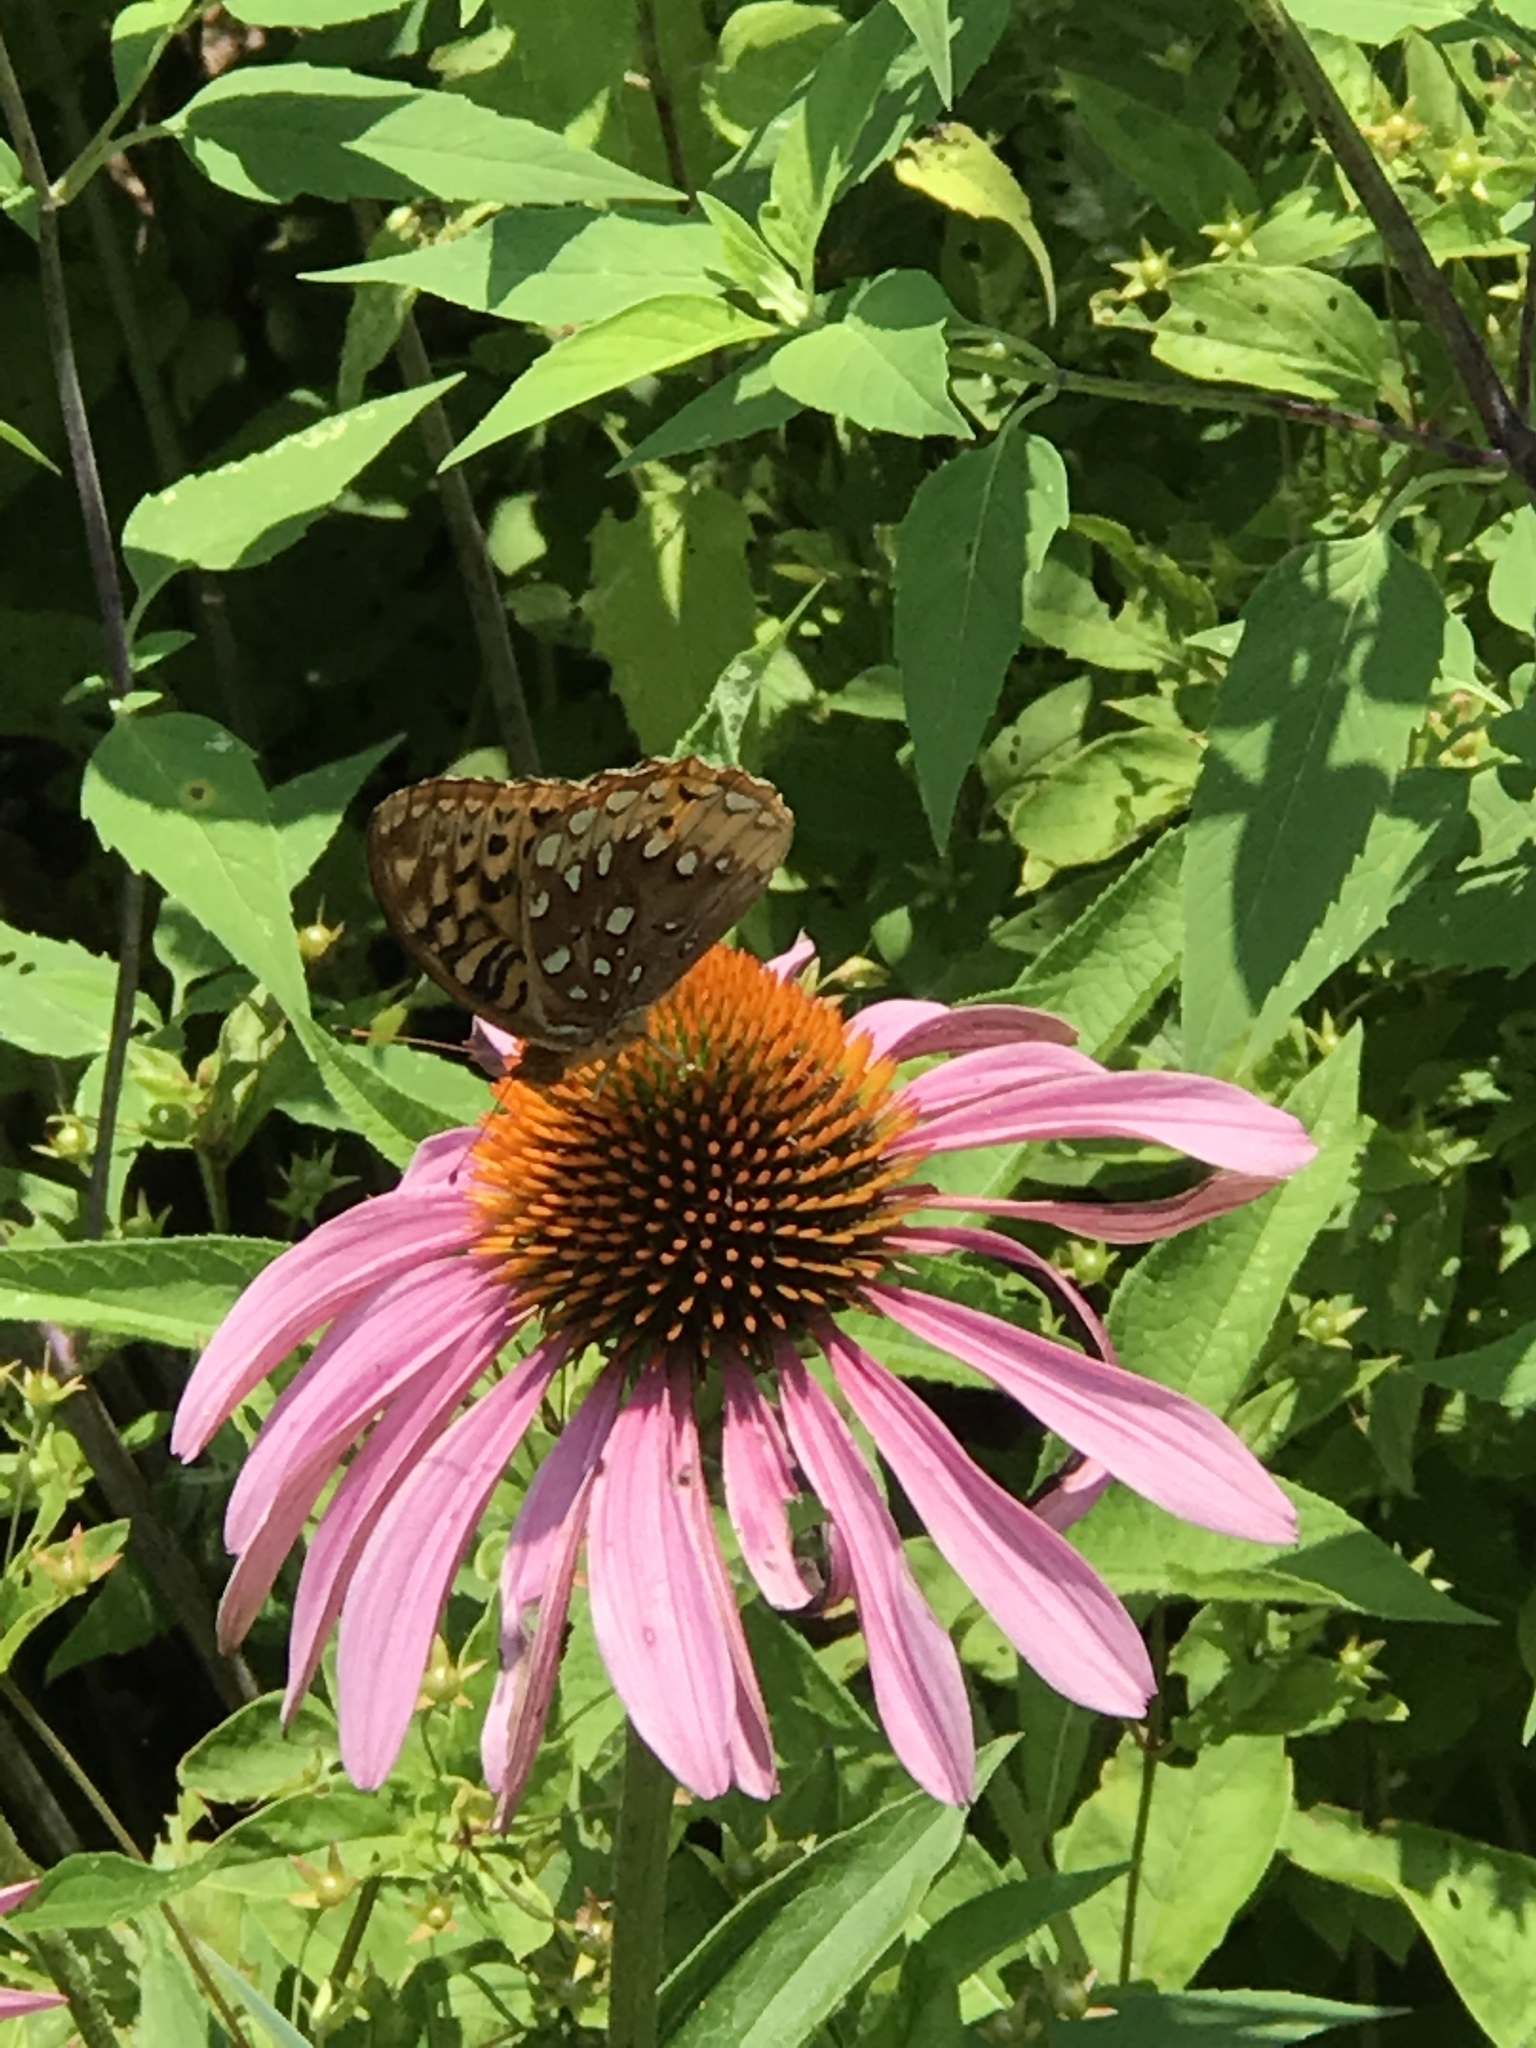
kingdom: Animalia
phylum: Arthropoda
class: Insecta
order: Lepidoptera
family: Nymphalidae
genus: Speyeria
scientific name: Speyeria cybele
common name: Great spangled fritillary
